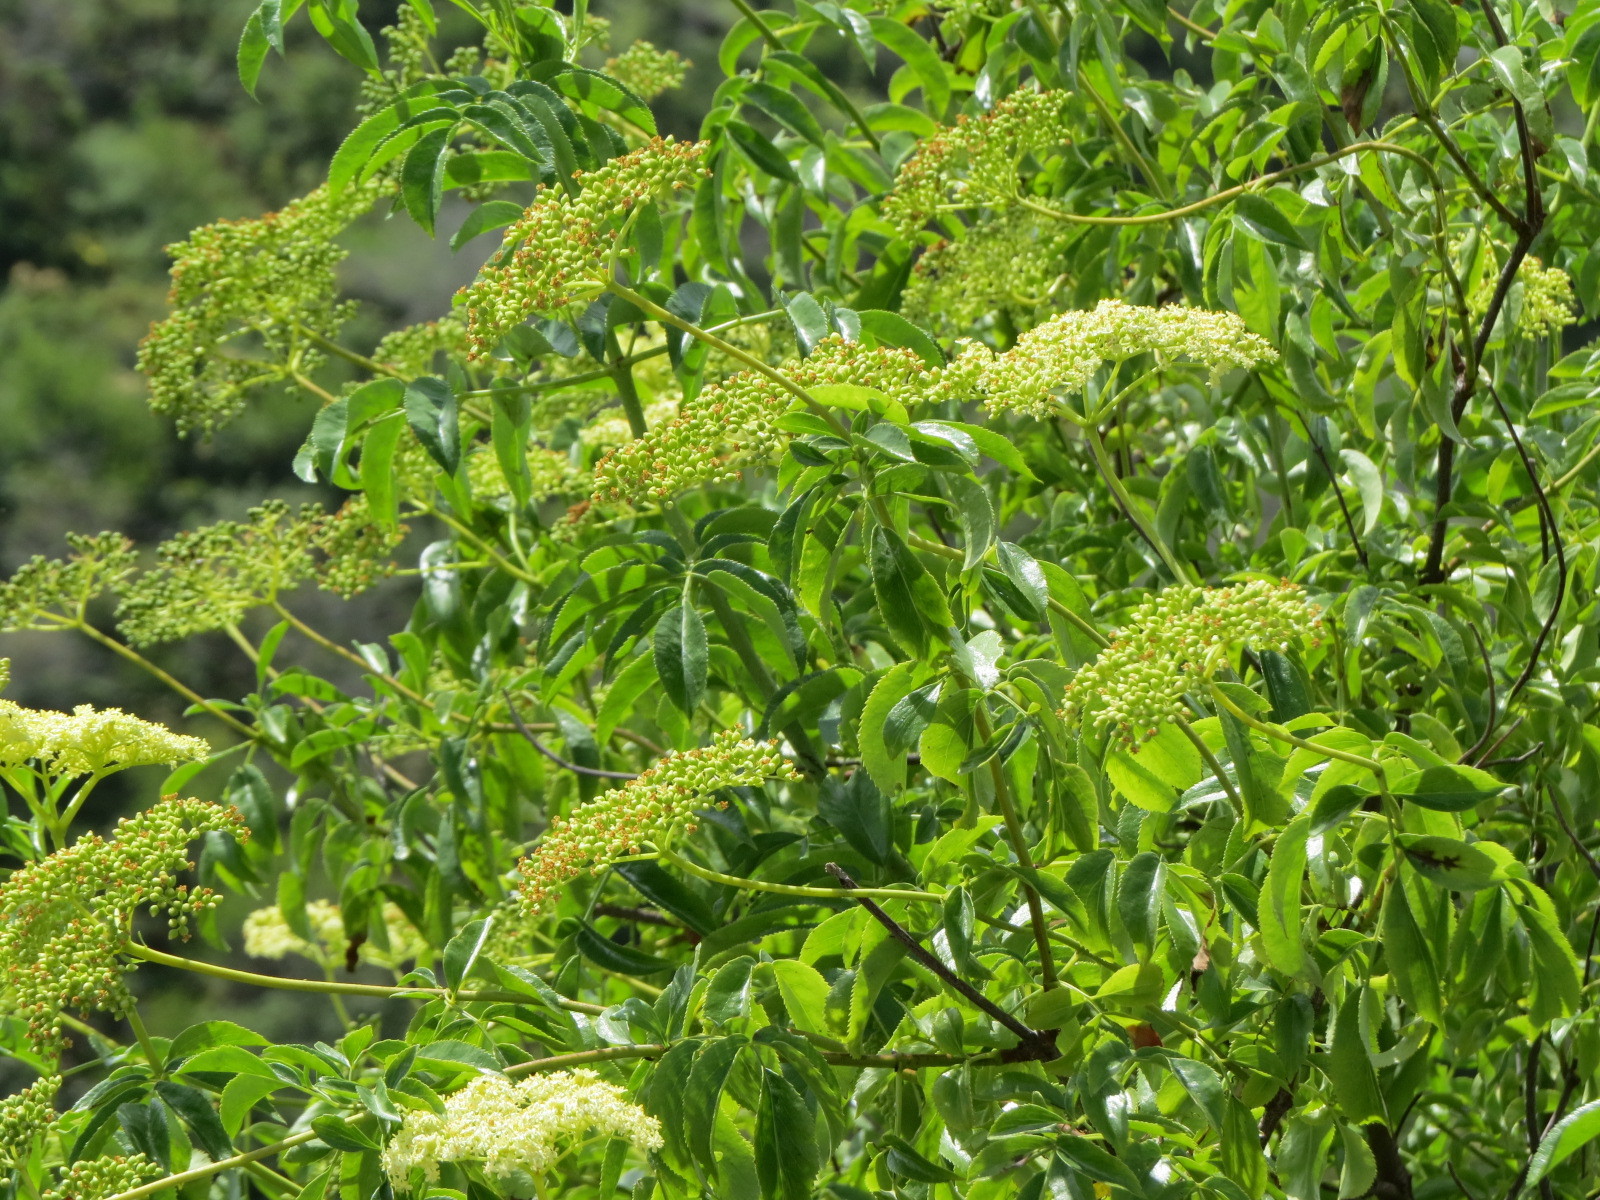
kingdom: Plantae
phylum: Tracheophyta
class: Magnoliopsida
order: Dipsacales
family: Viburnaceae
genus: Sambucus
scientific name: Sambucus cerulea
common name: Blue elder
